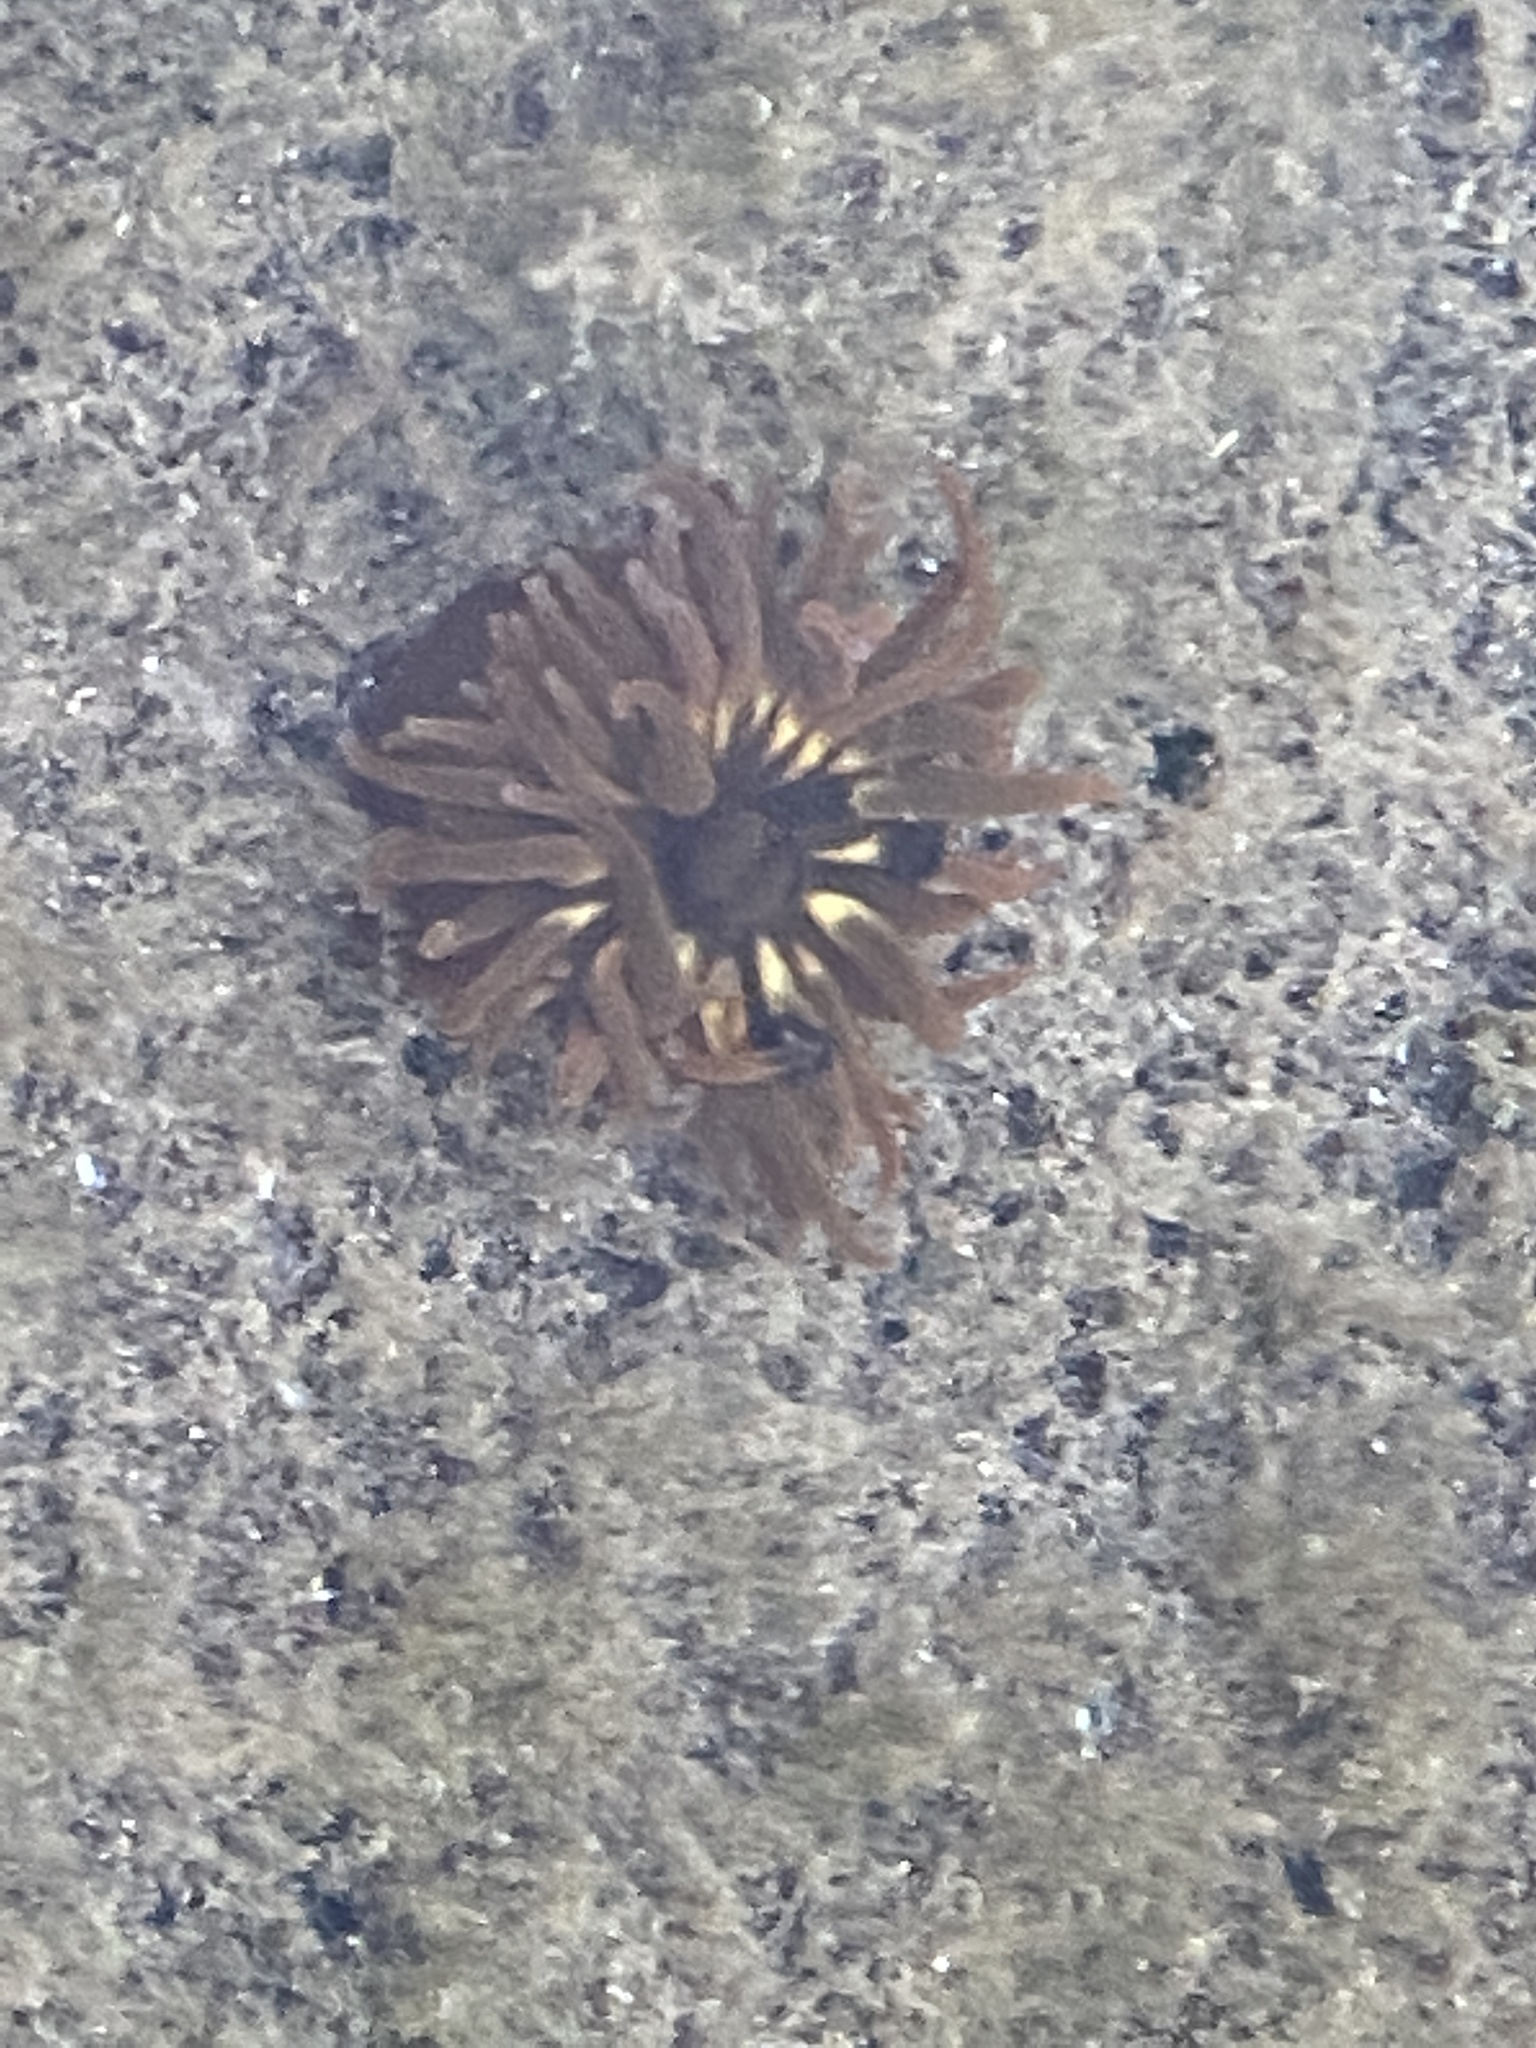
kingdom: Animalia
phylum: Cnidaria
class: Anthozoa
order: Actiniaria
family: Actiniidae
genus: Anemonia
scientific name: Anemonia sargassensis
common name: Sargassum anemone
